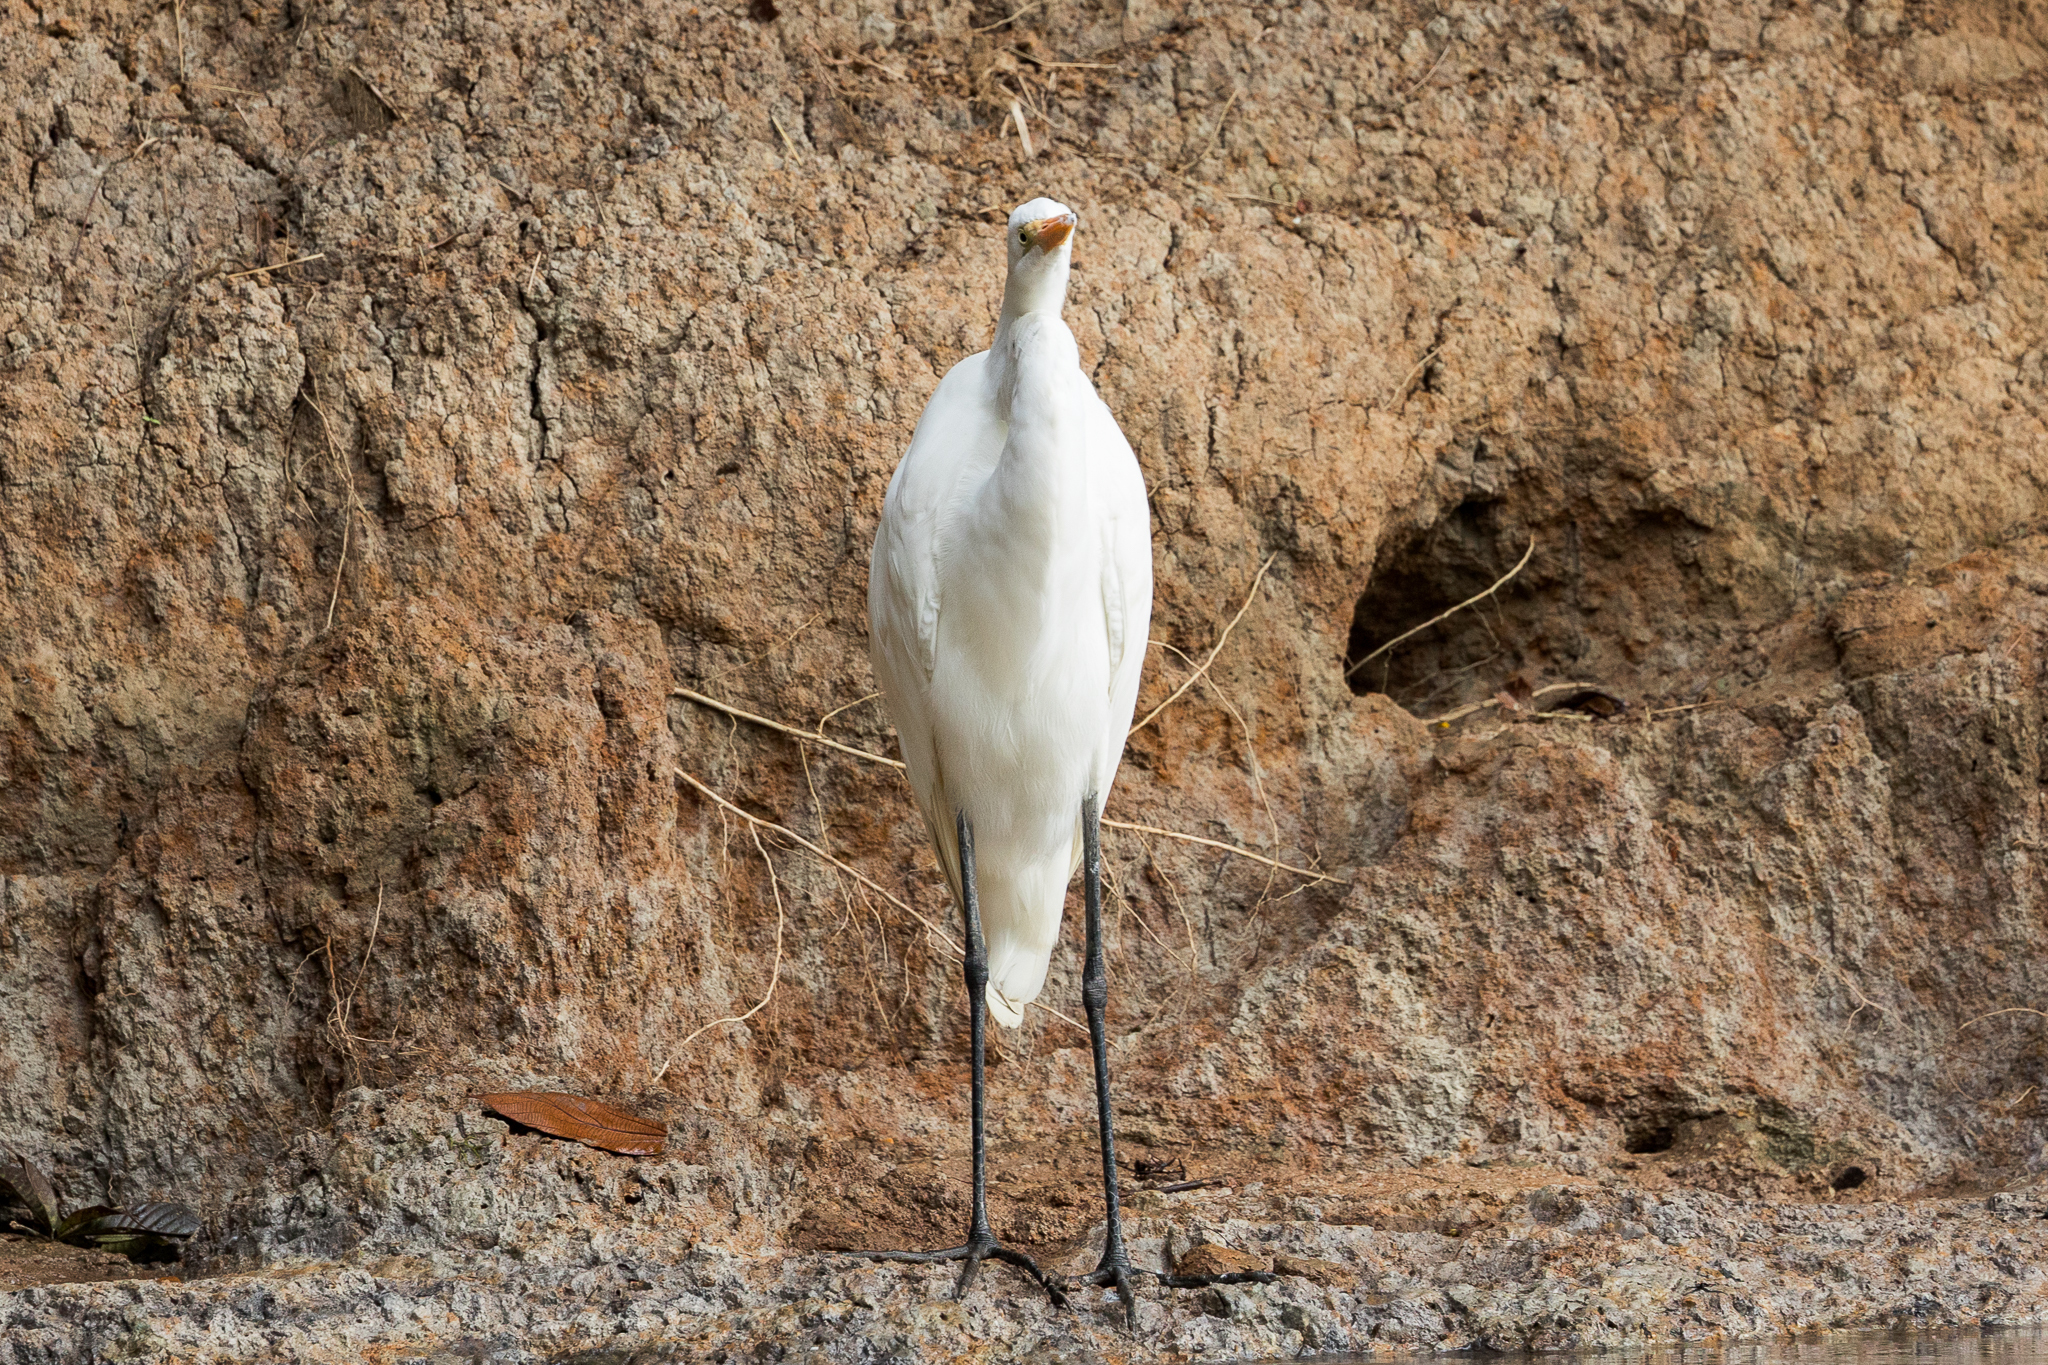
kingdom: Animalia
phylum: Chordata
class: Aves
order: Pelecaniformes
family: Ardeidae
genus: Ardea
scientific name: Ardea alba
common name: Great egret
